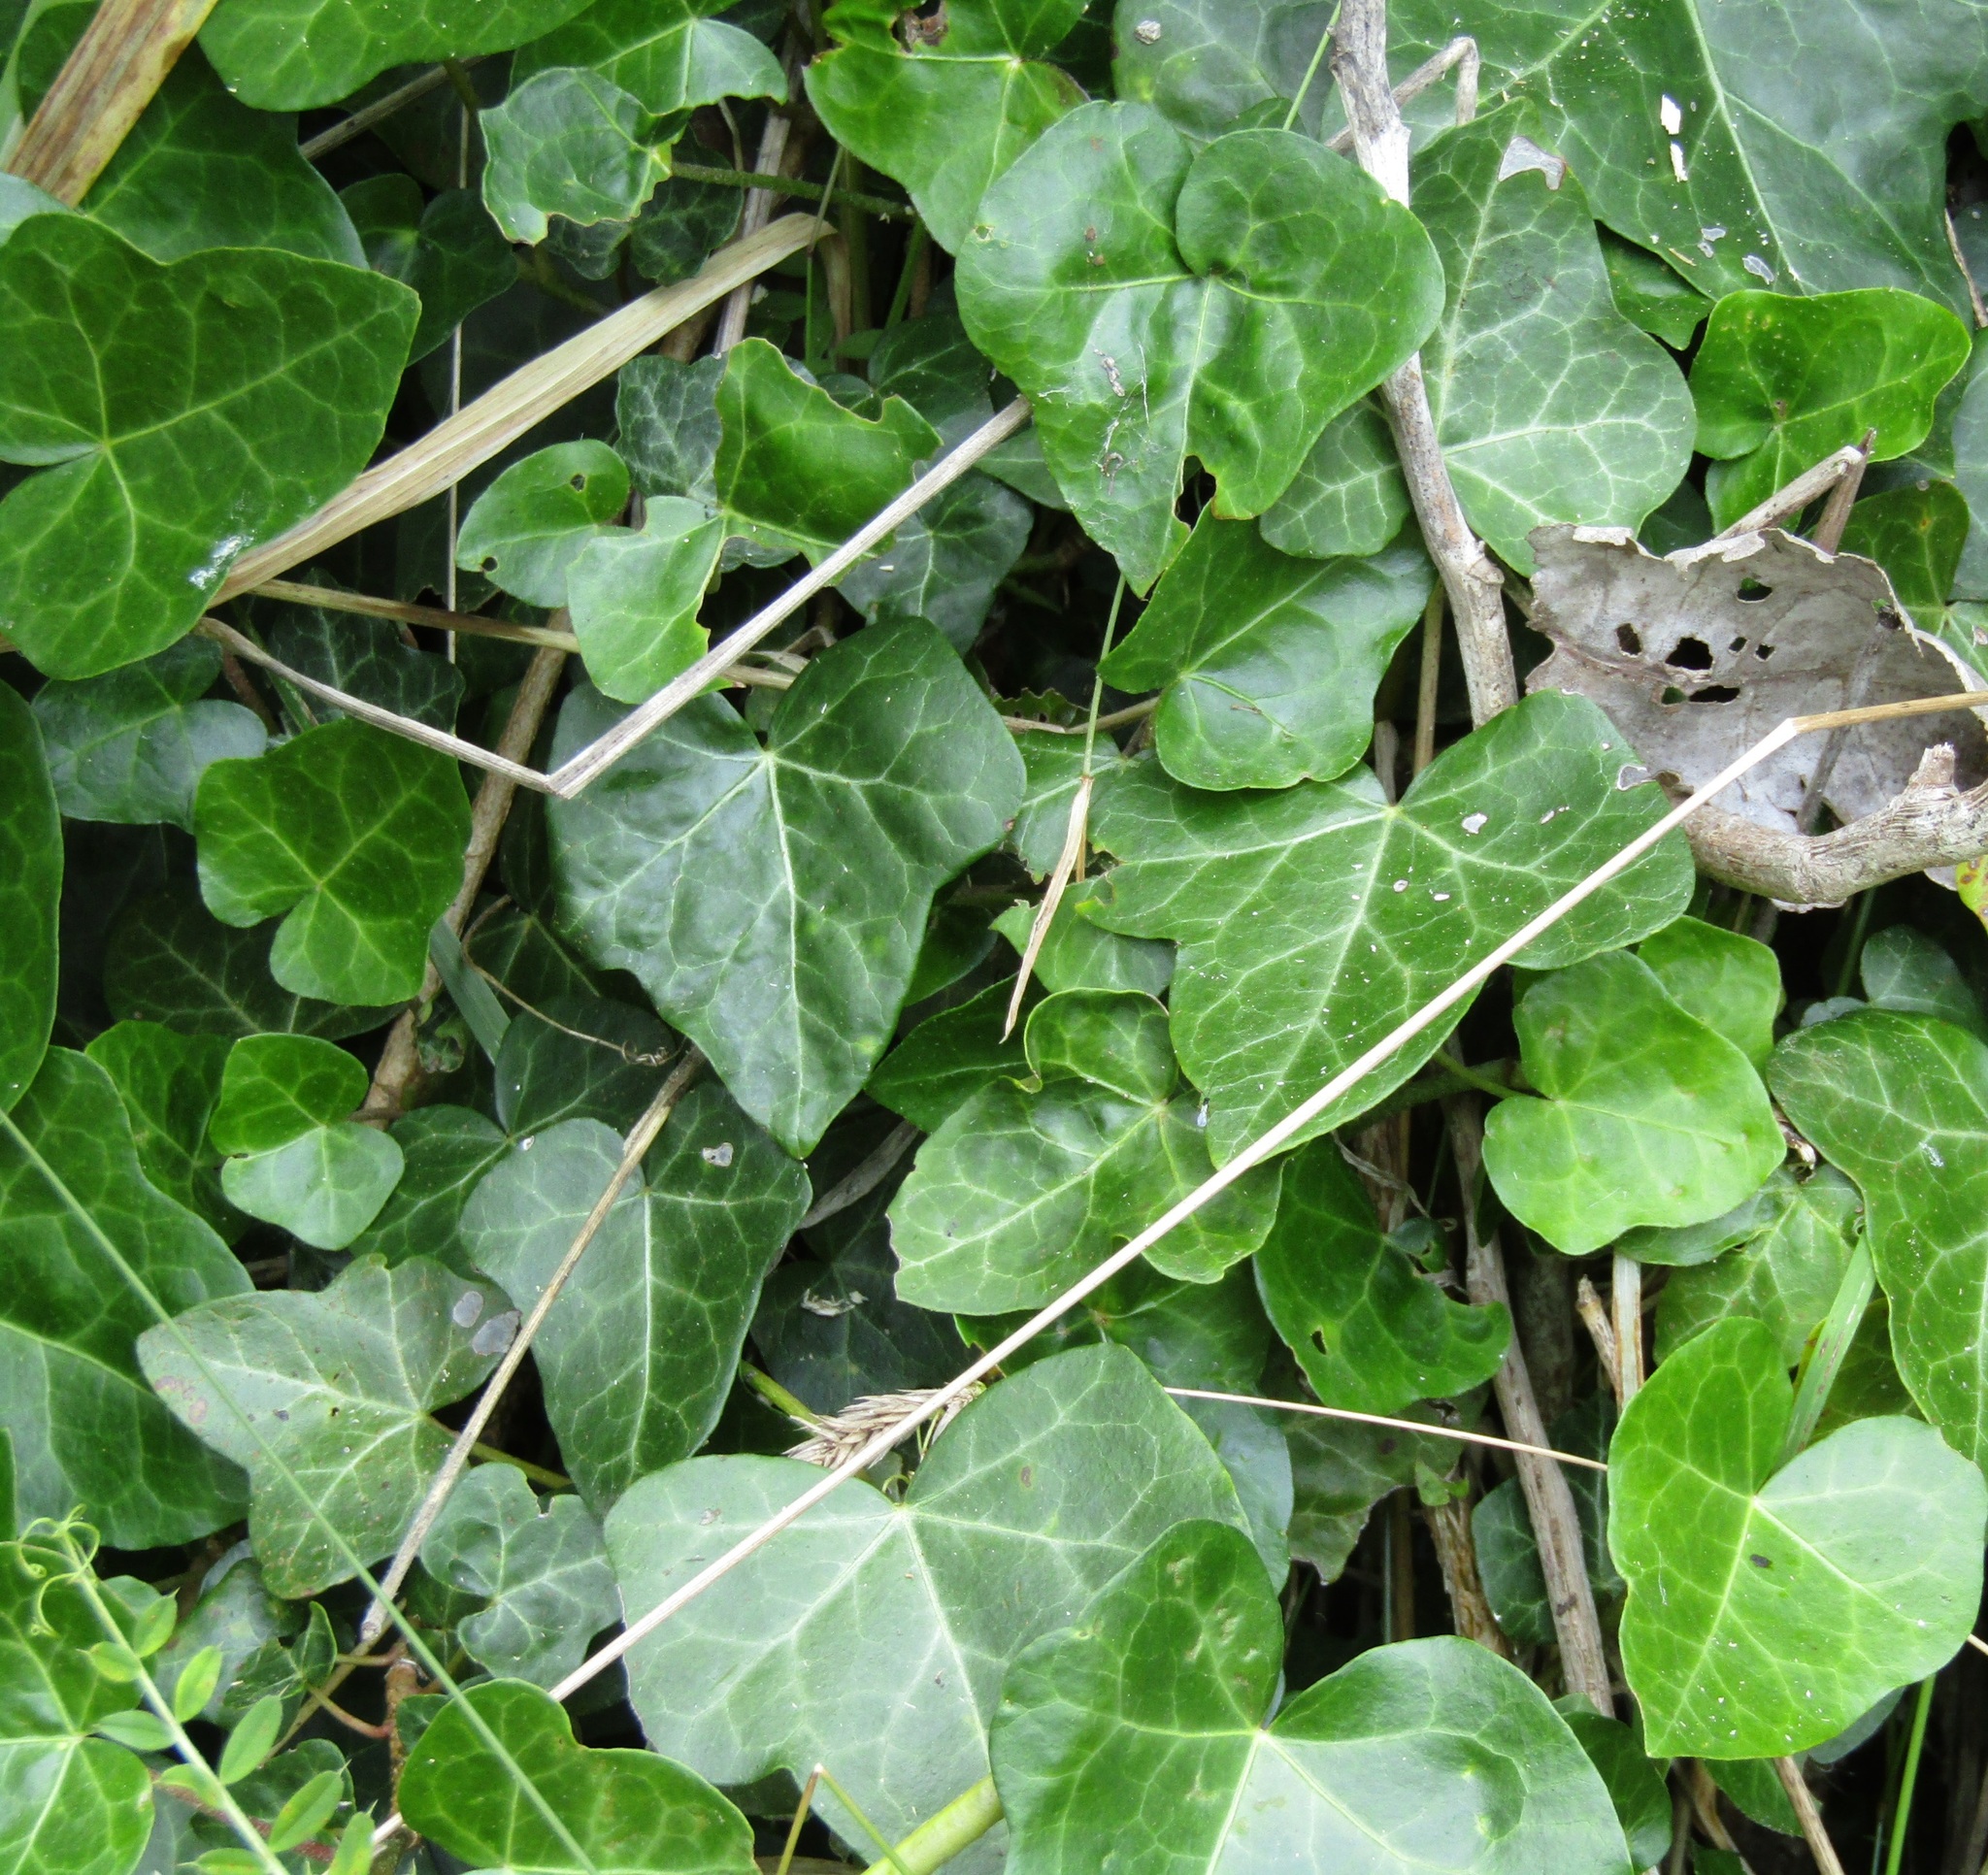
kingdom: Plantae
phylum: Tracheophyta
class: Magnoliopsida
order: Apiales
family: Araliaceae
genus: Hedera
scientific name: Hedera helix
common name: Ivy
